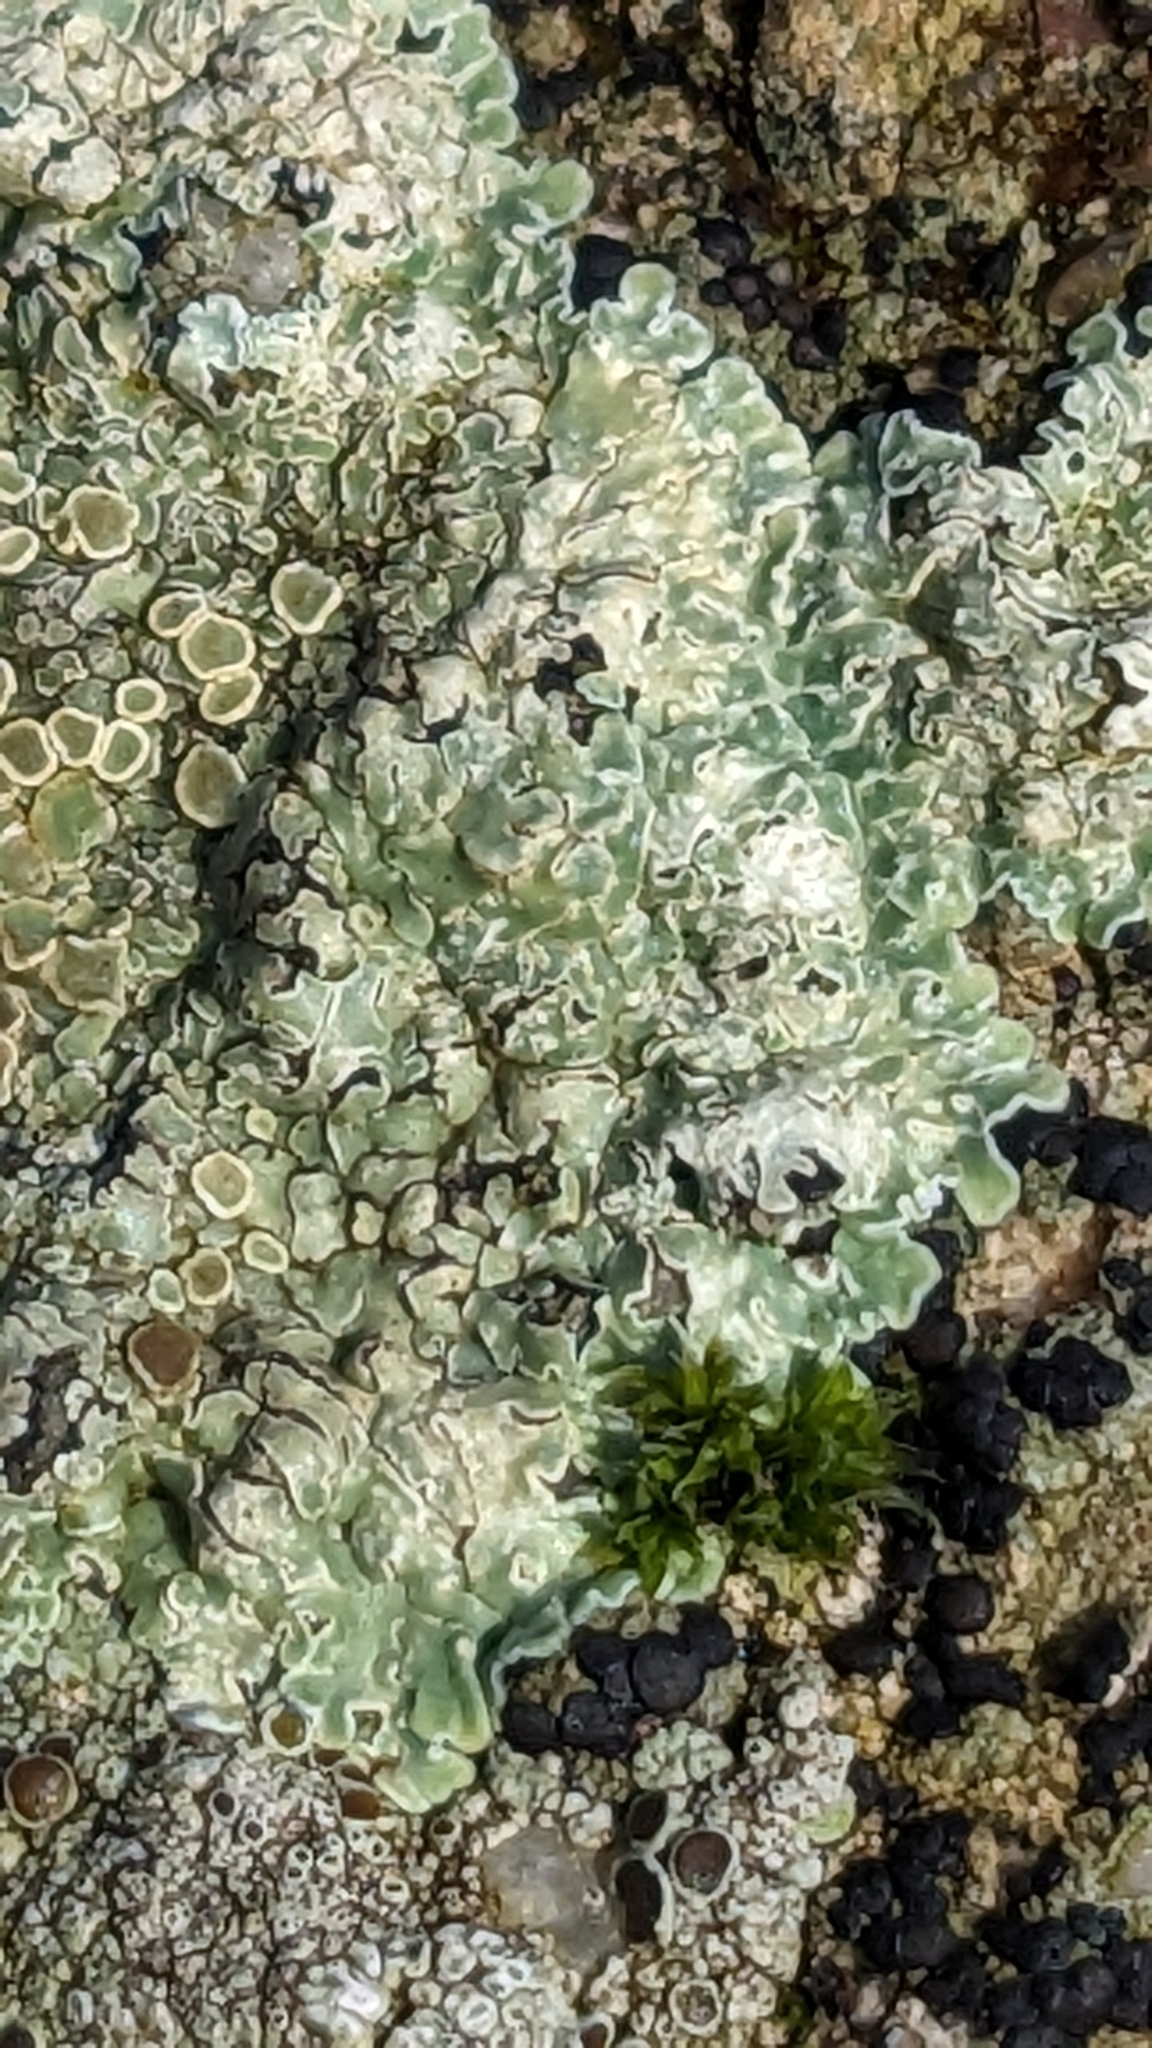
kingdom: Fungi
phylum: Ascomycota
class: Lecanoromycetes
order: Lecanorales
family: Lecanoraceae
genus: Protoparmeliopsis
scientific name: Protoparmeliopsis muralis
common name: Stonewall rim lichen
